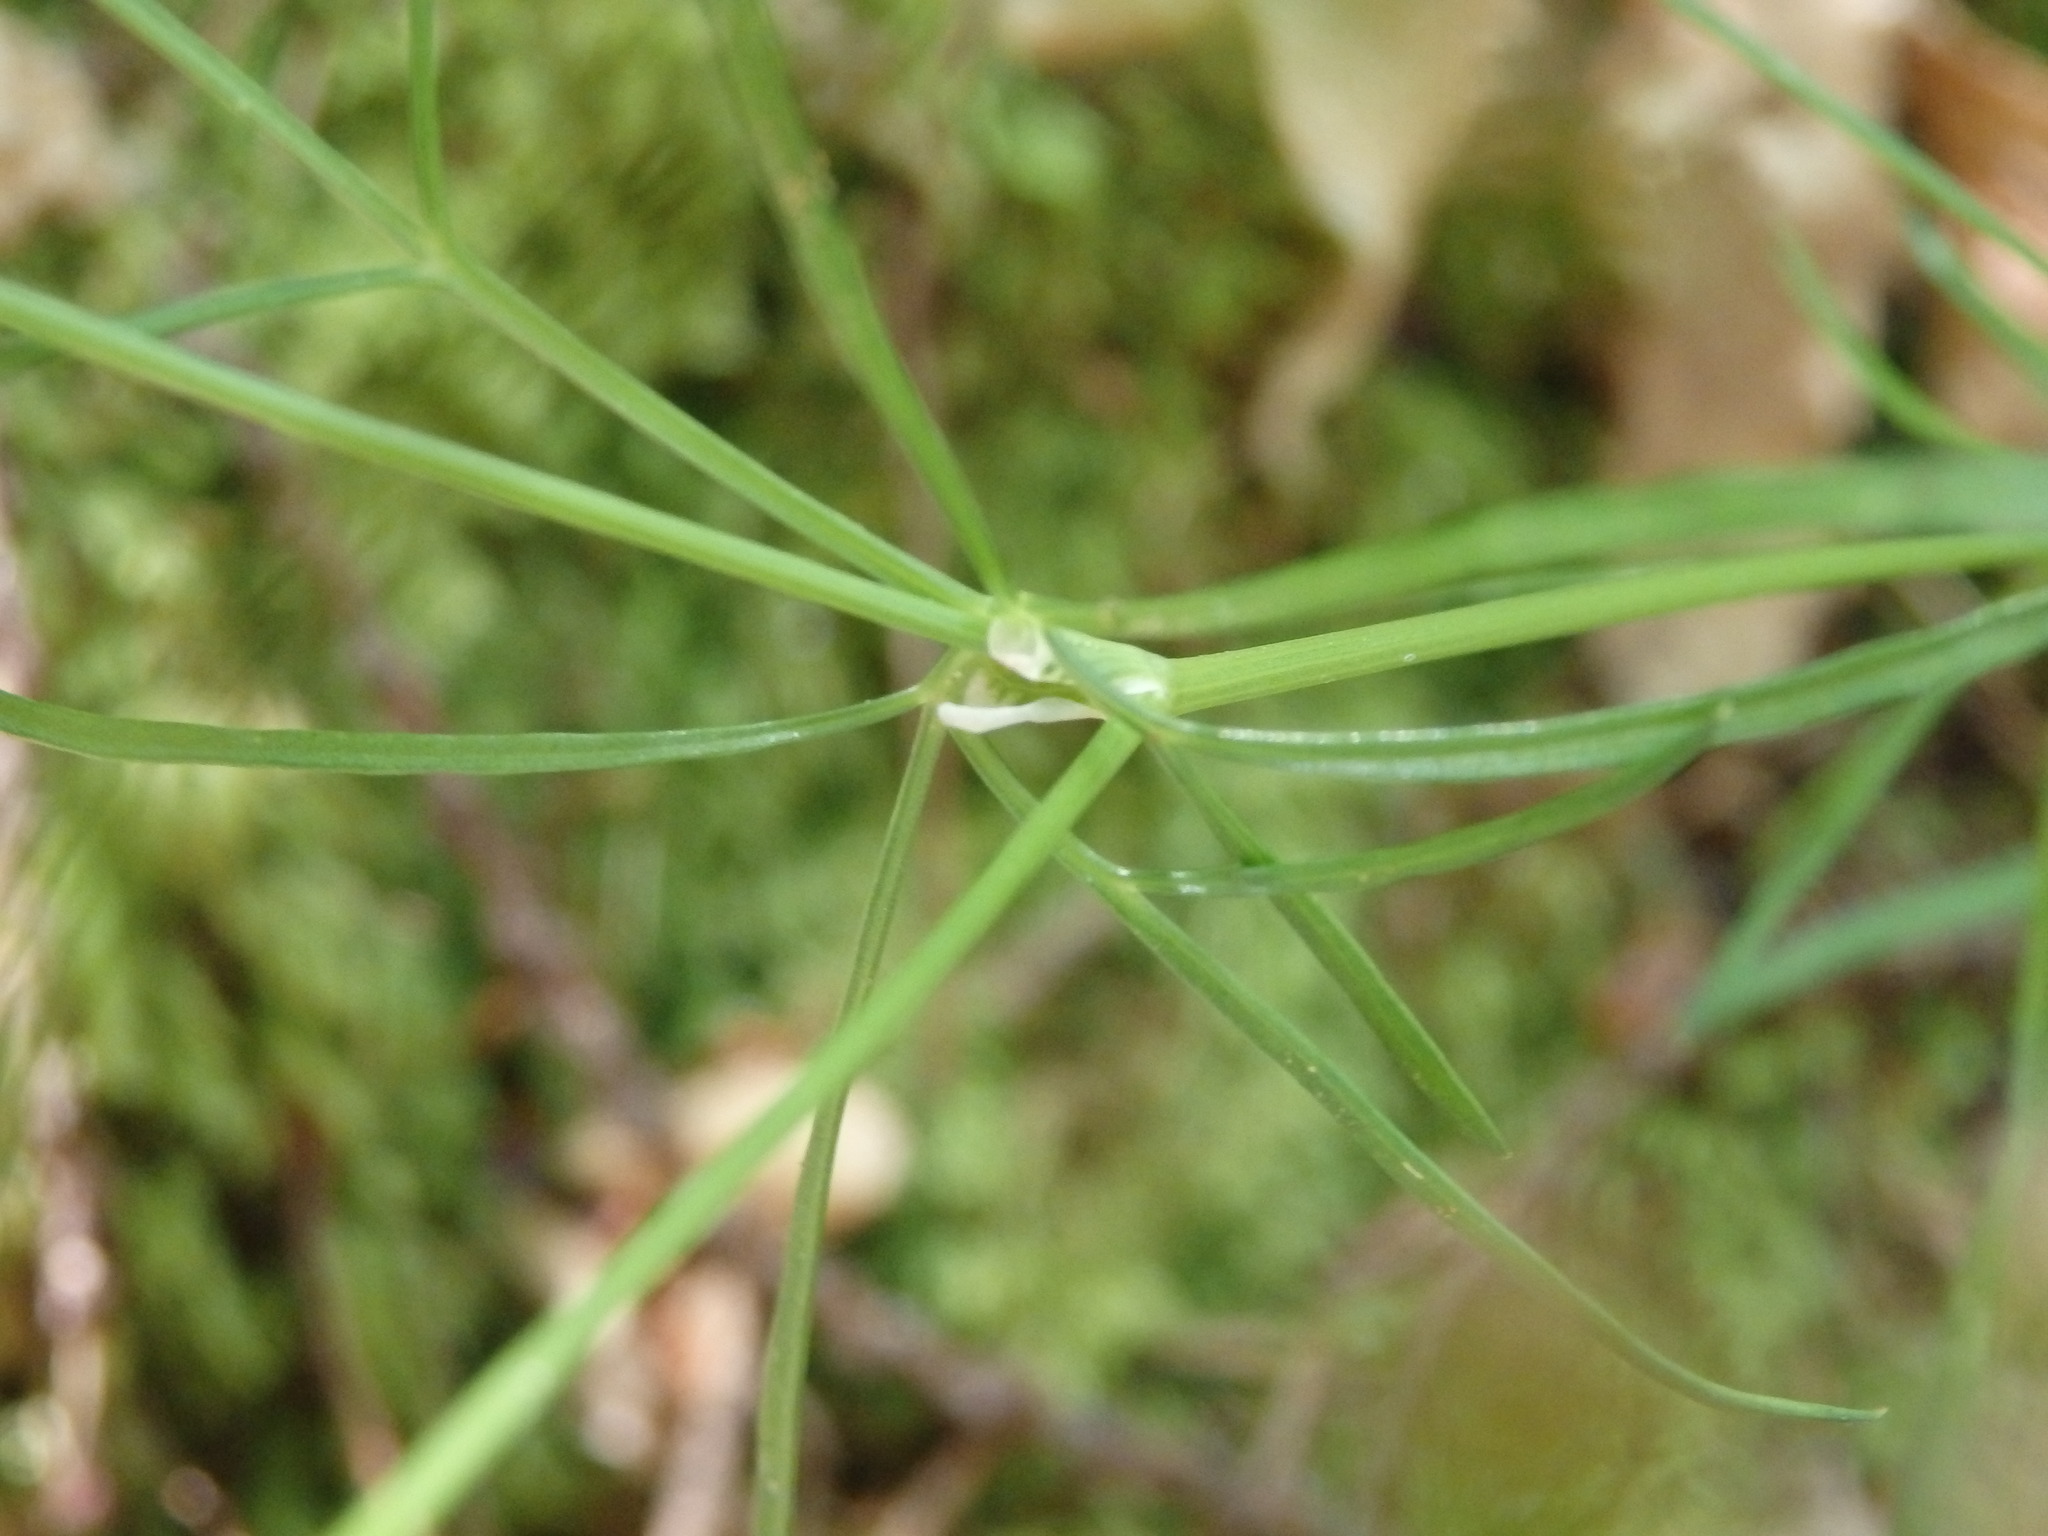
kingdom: Plantae
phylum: Tracheophyta
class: Magnoliopsida
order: Apiales
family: Apiaceae
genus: Thysselinum
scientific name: Thysselinum lancifolium
